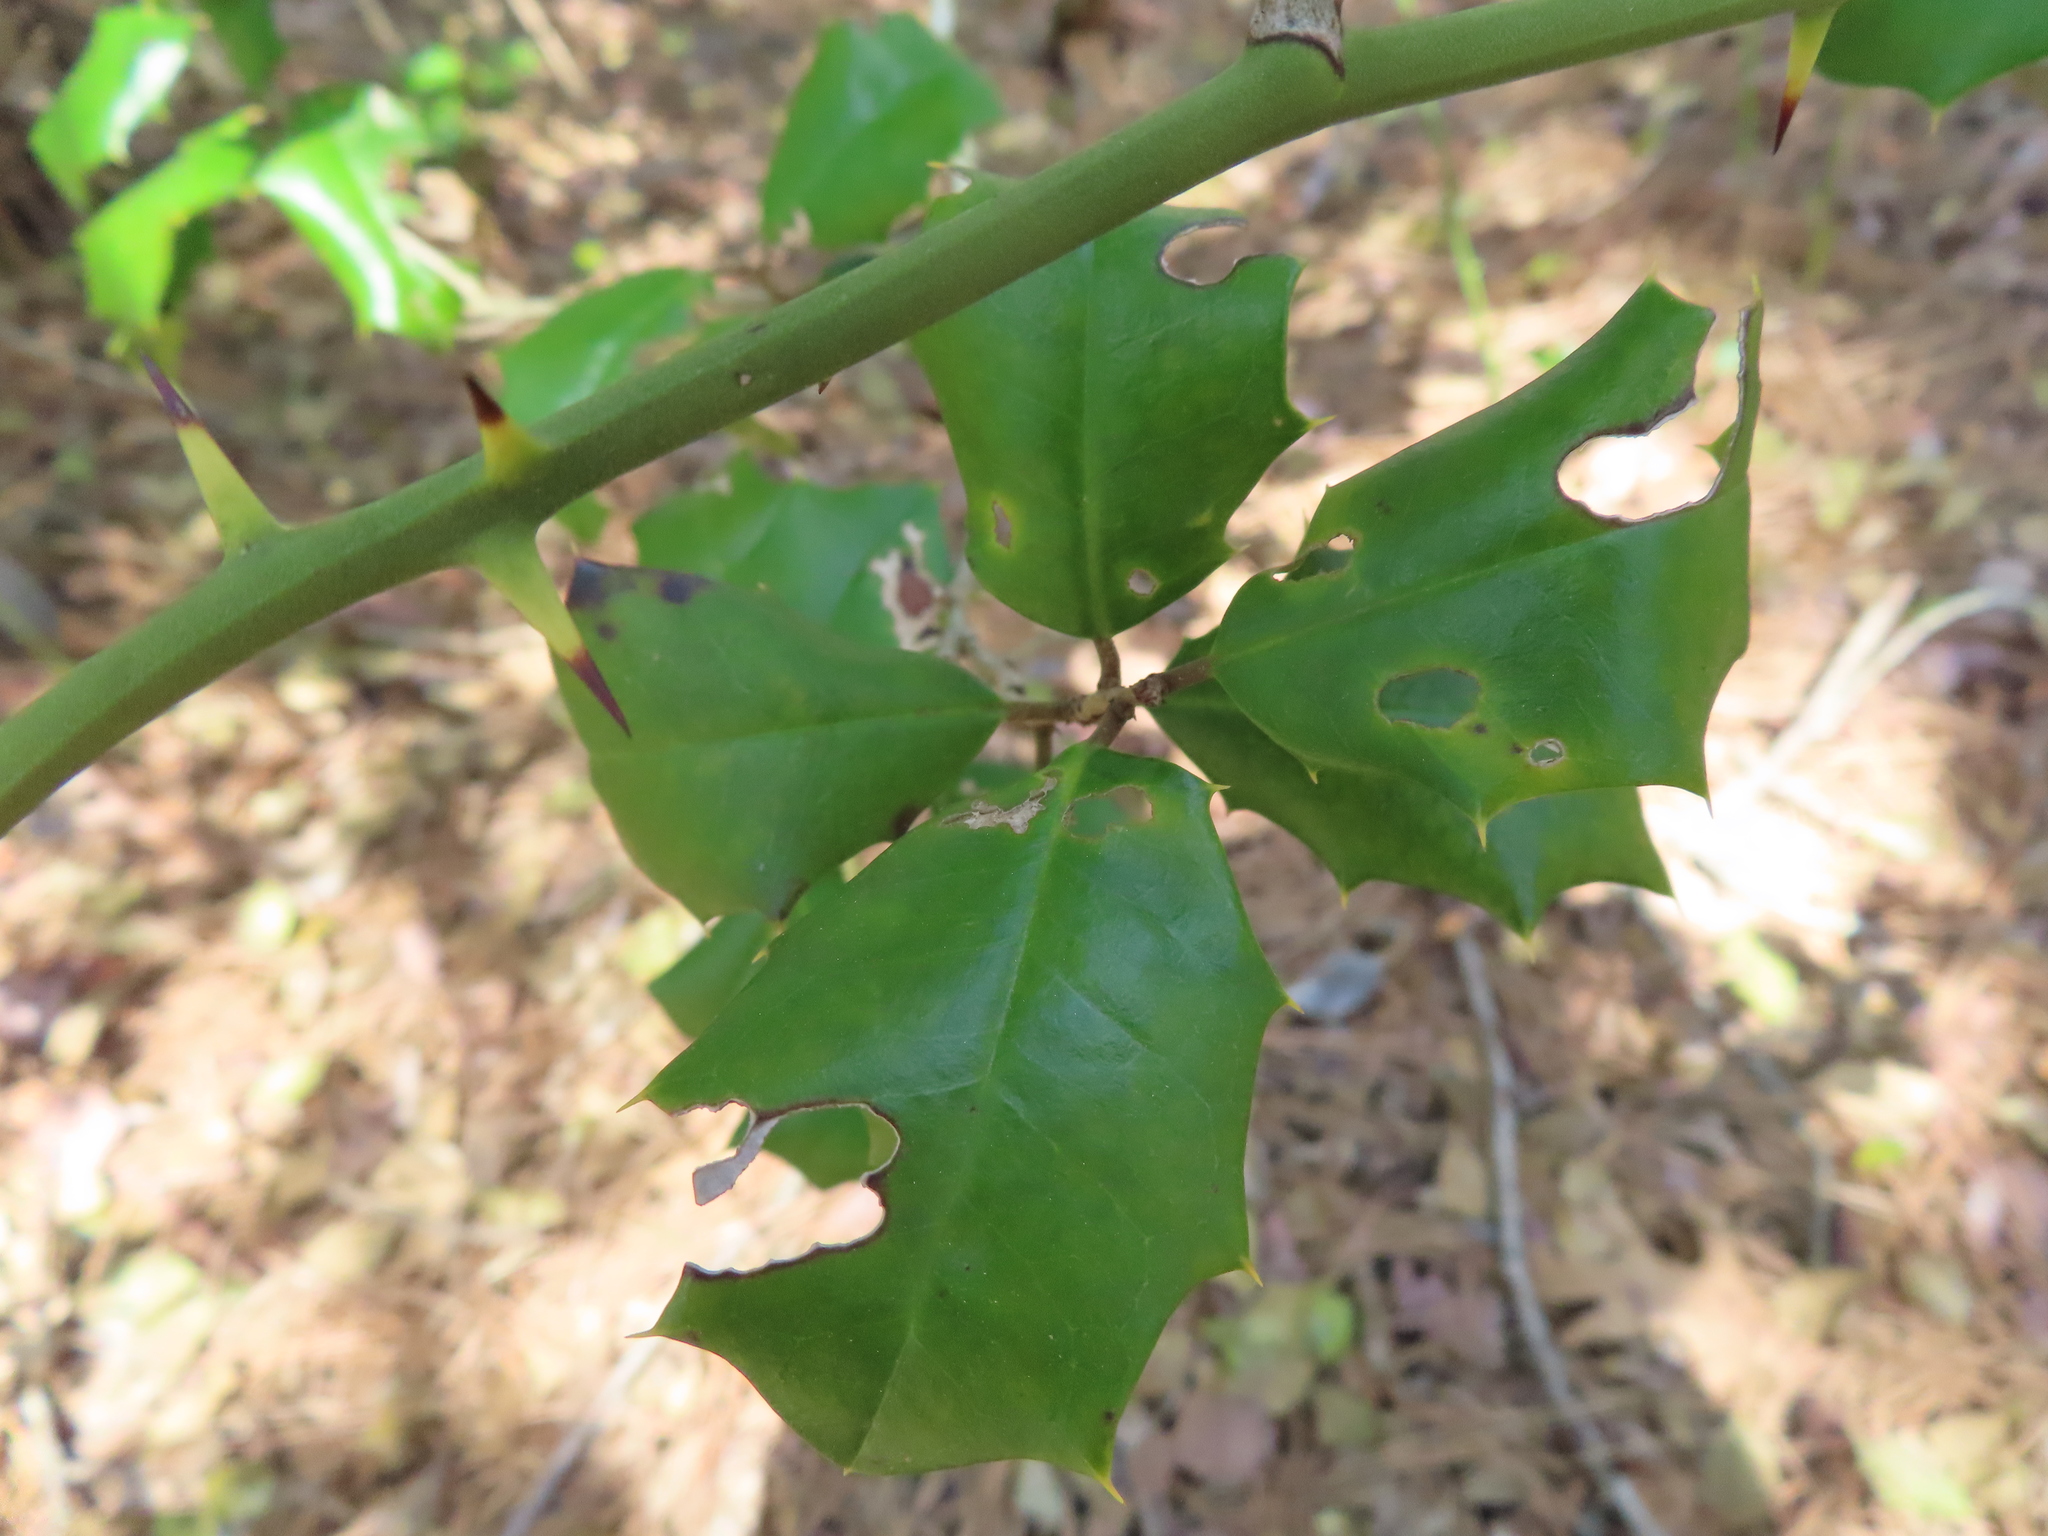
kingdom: Plantae
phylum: Tracheophyta
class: Magnoliopsida
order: Aquifoliales
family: Aquifoliaceae
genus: Ilex
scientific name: Ilex opaca
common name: American holly
